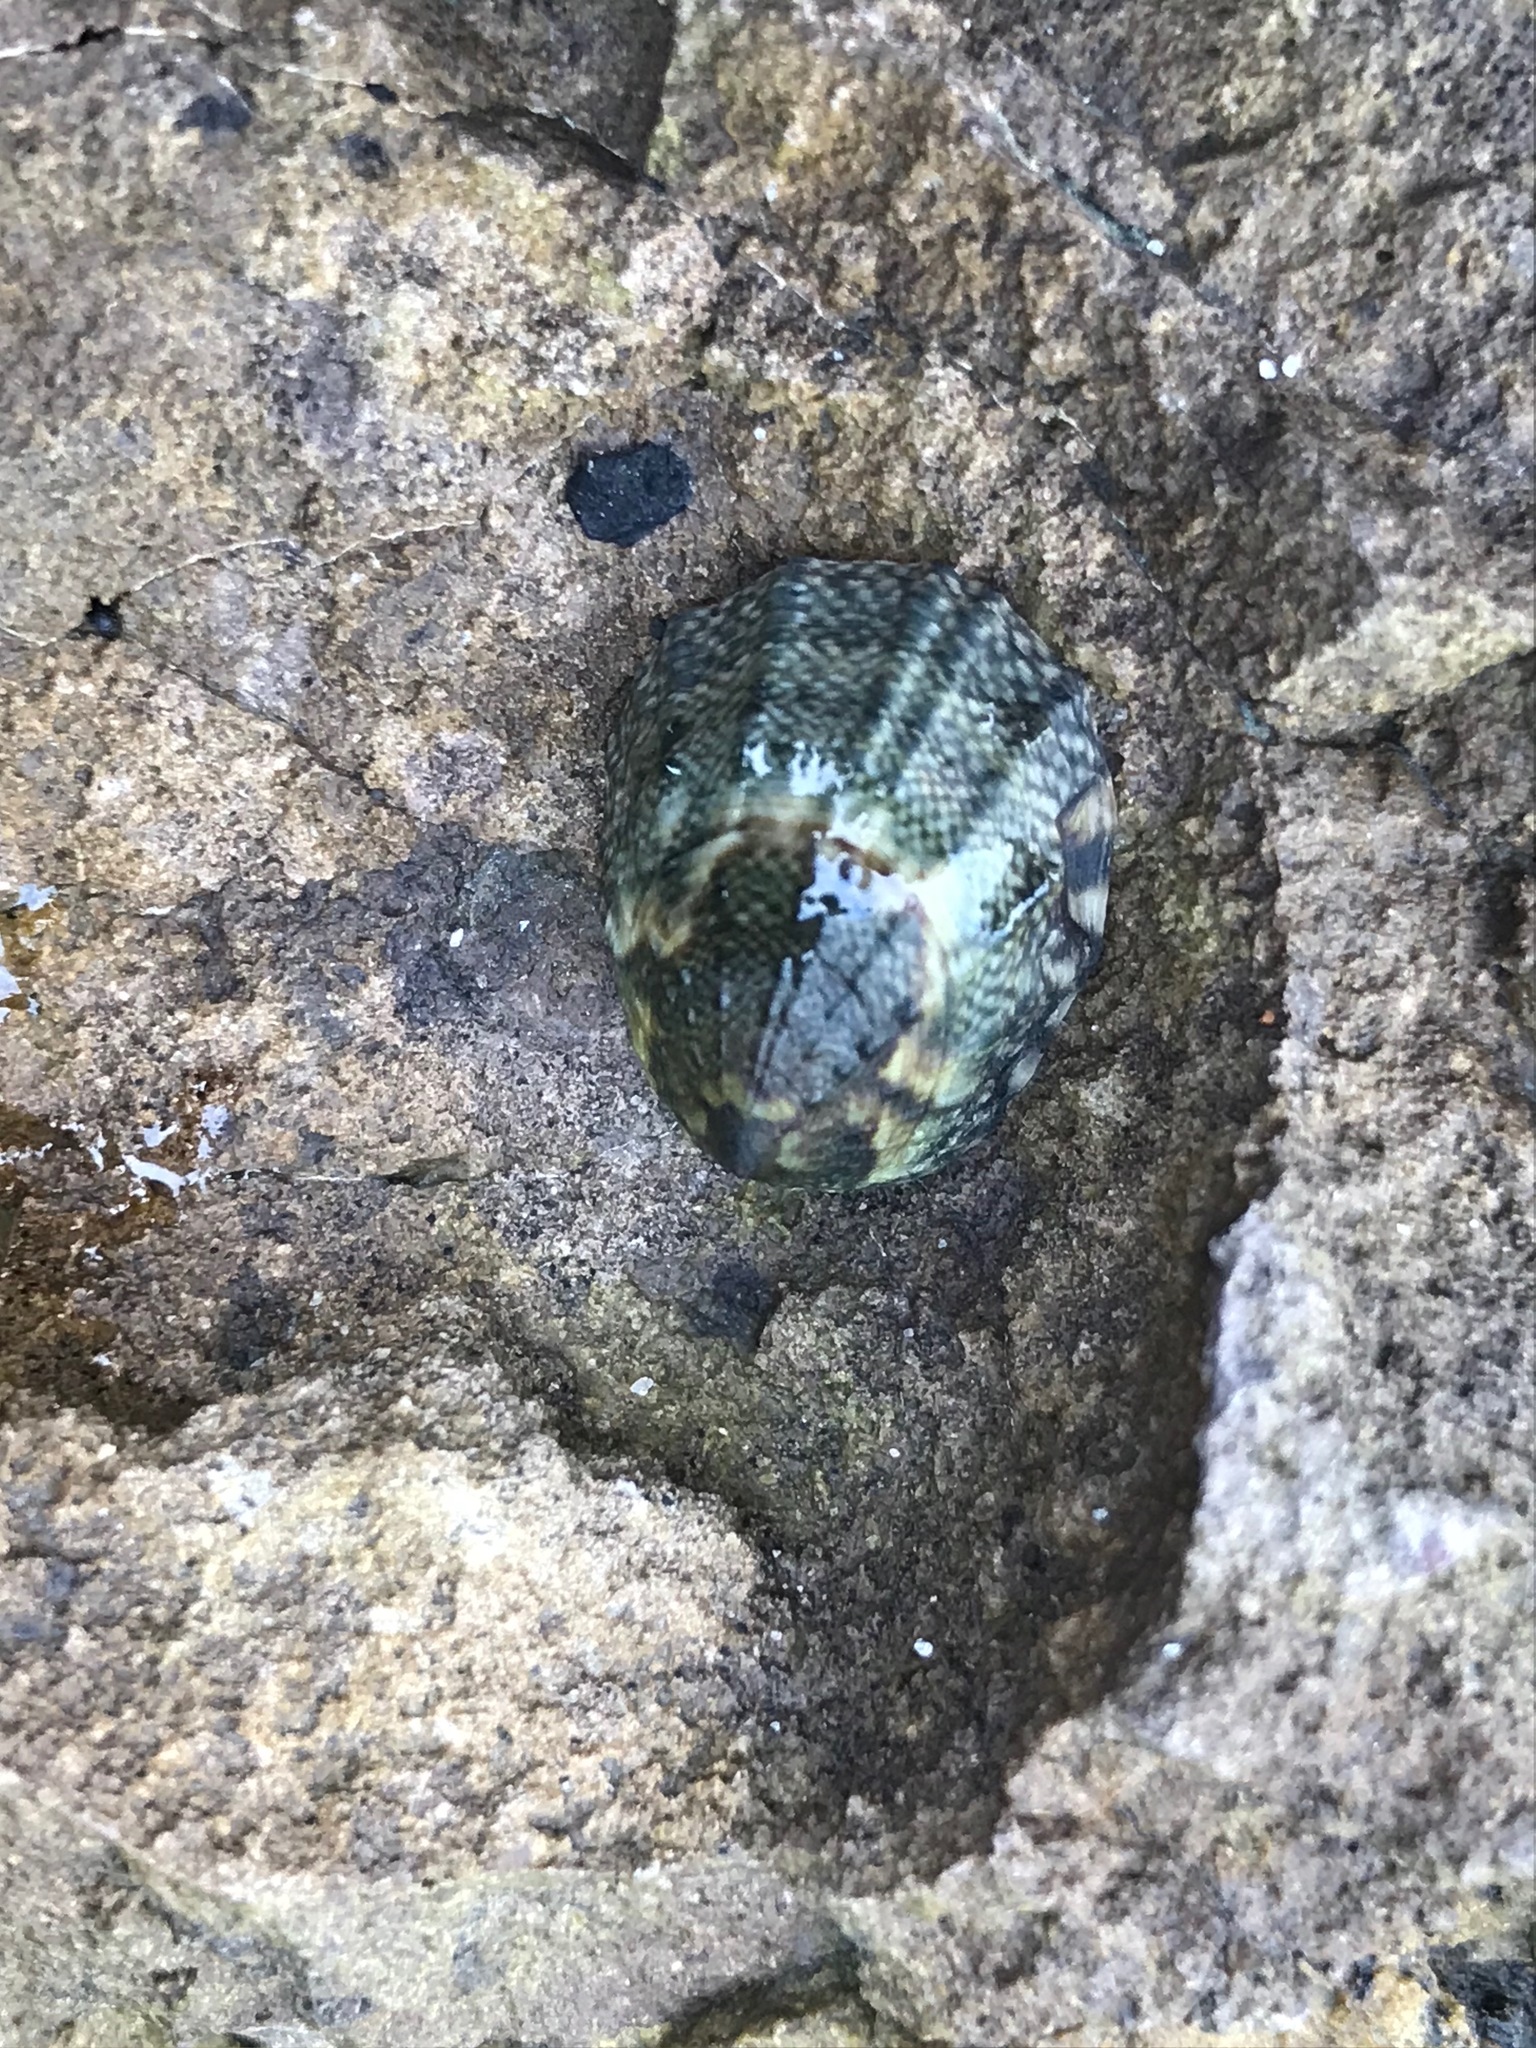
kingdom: Animalia
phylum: Mollusca
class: Gastropoda
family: Lottiidae
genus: Lottia
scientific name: Lottia austrodigitalis
